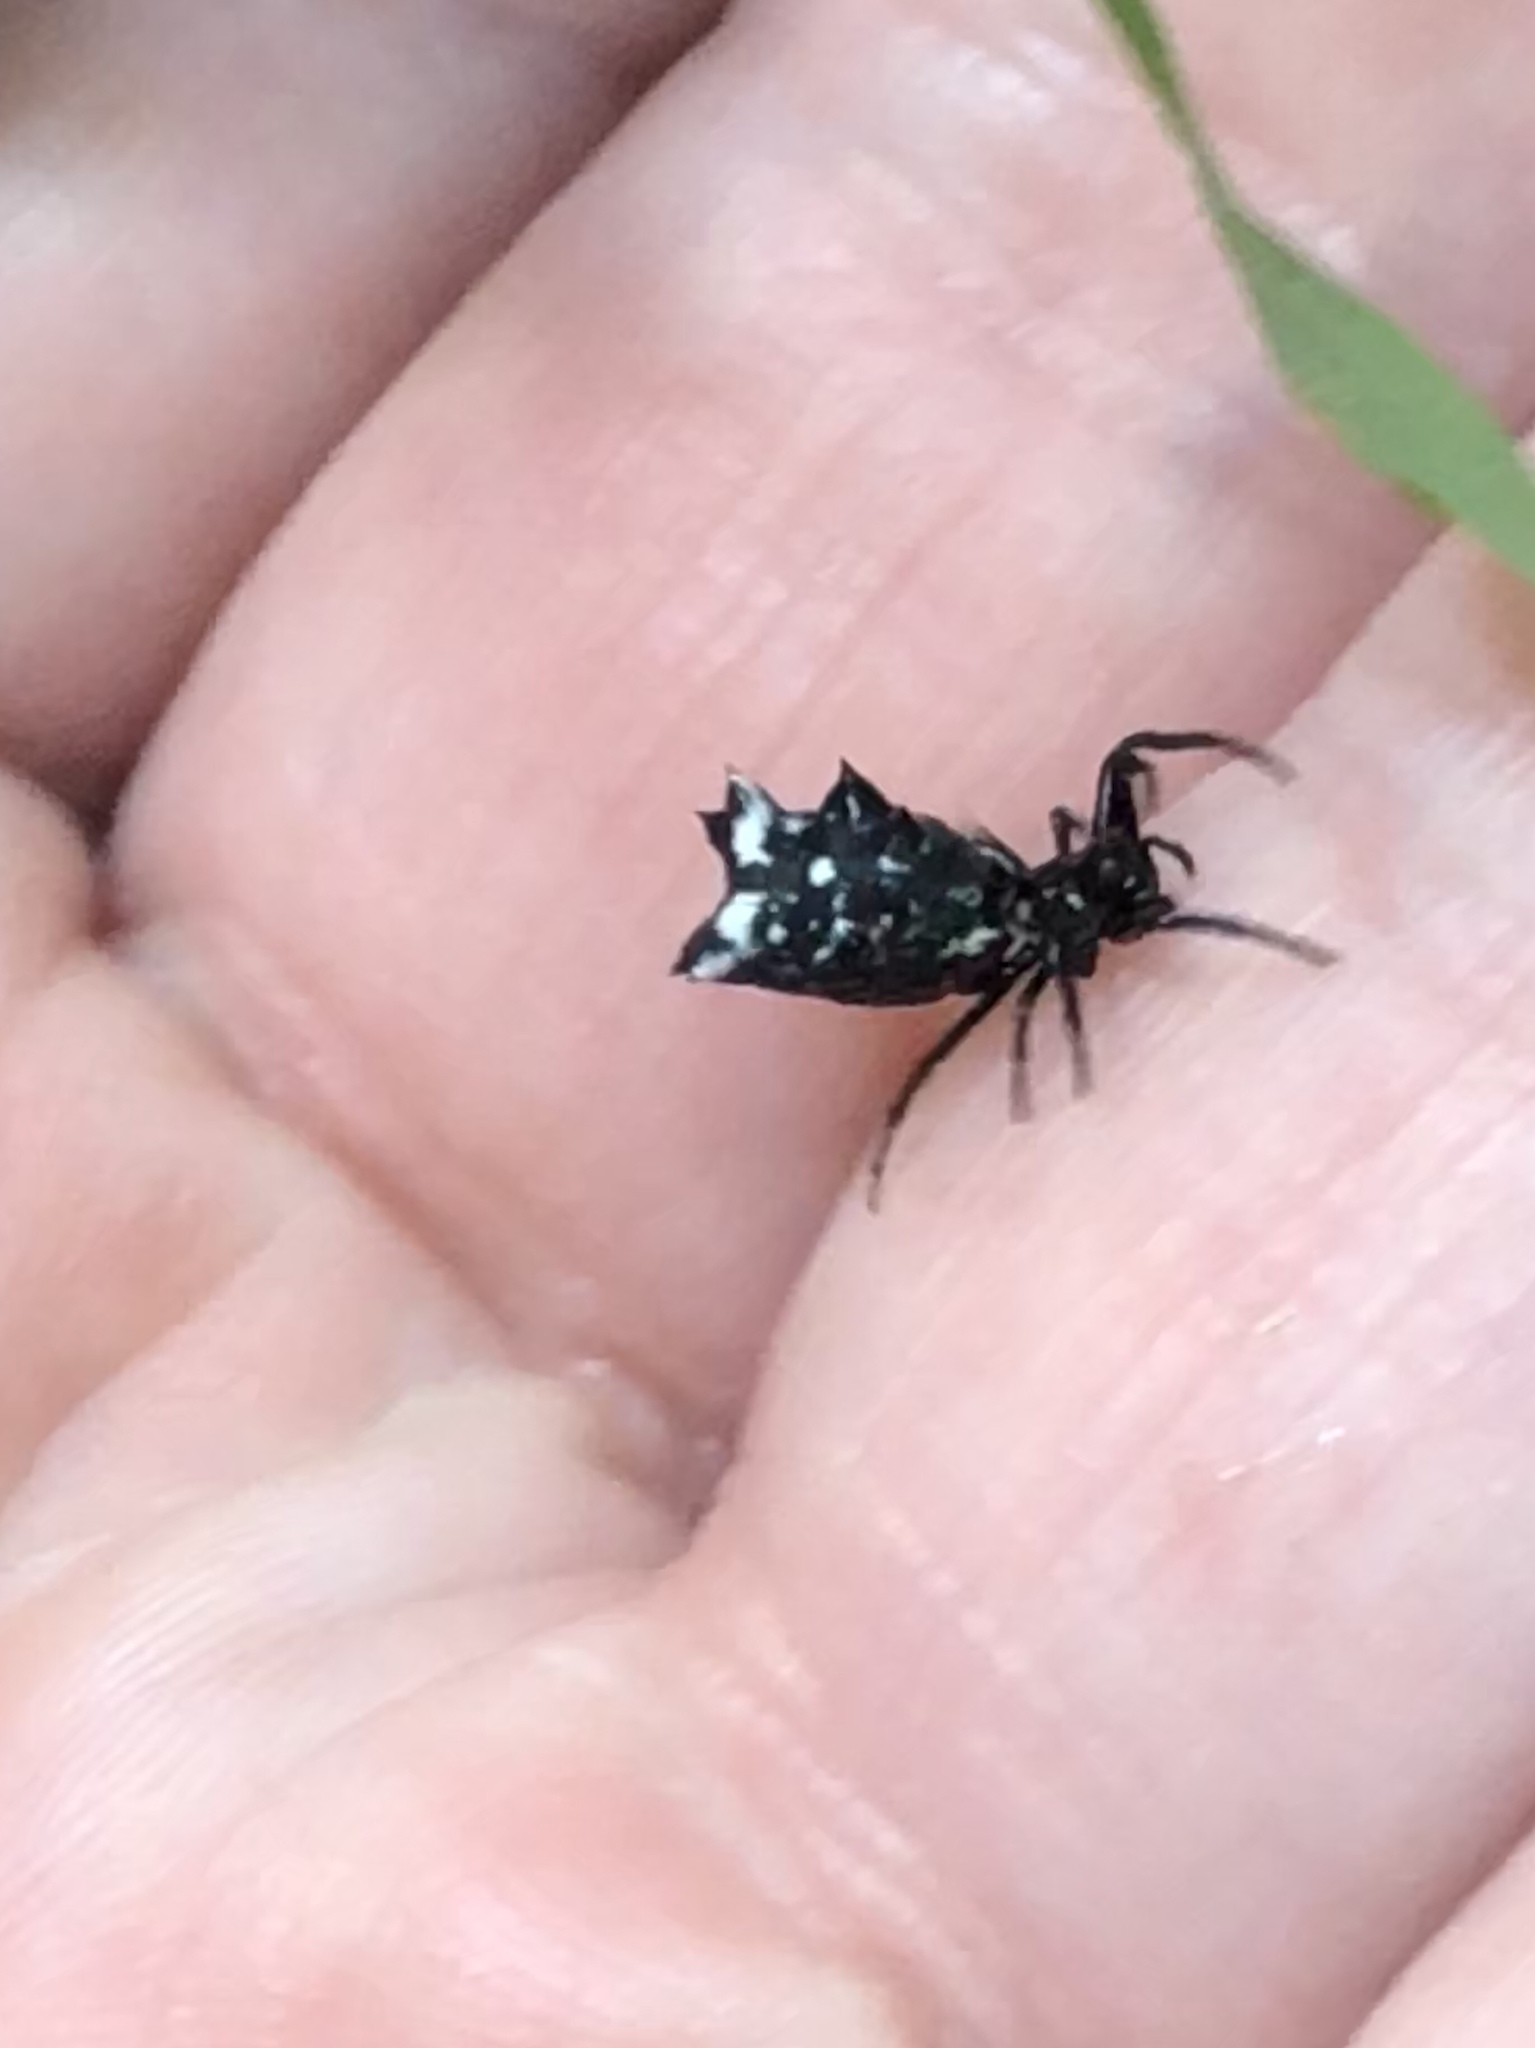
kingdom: Animalia
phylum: Arthropoda
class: Arachnida
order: Araneae
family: Araneidae
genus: Micrathena
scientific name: Micrathena gracilis
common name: Orb weavers
